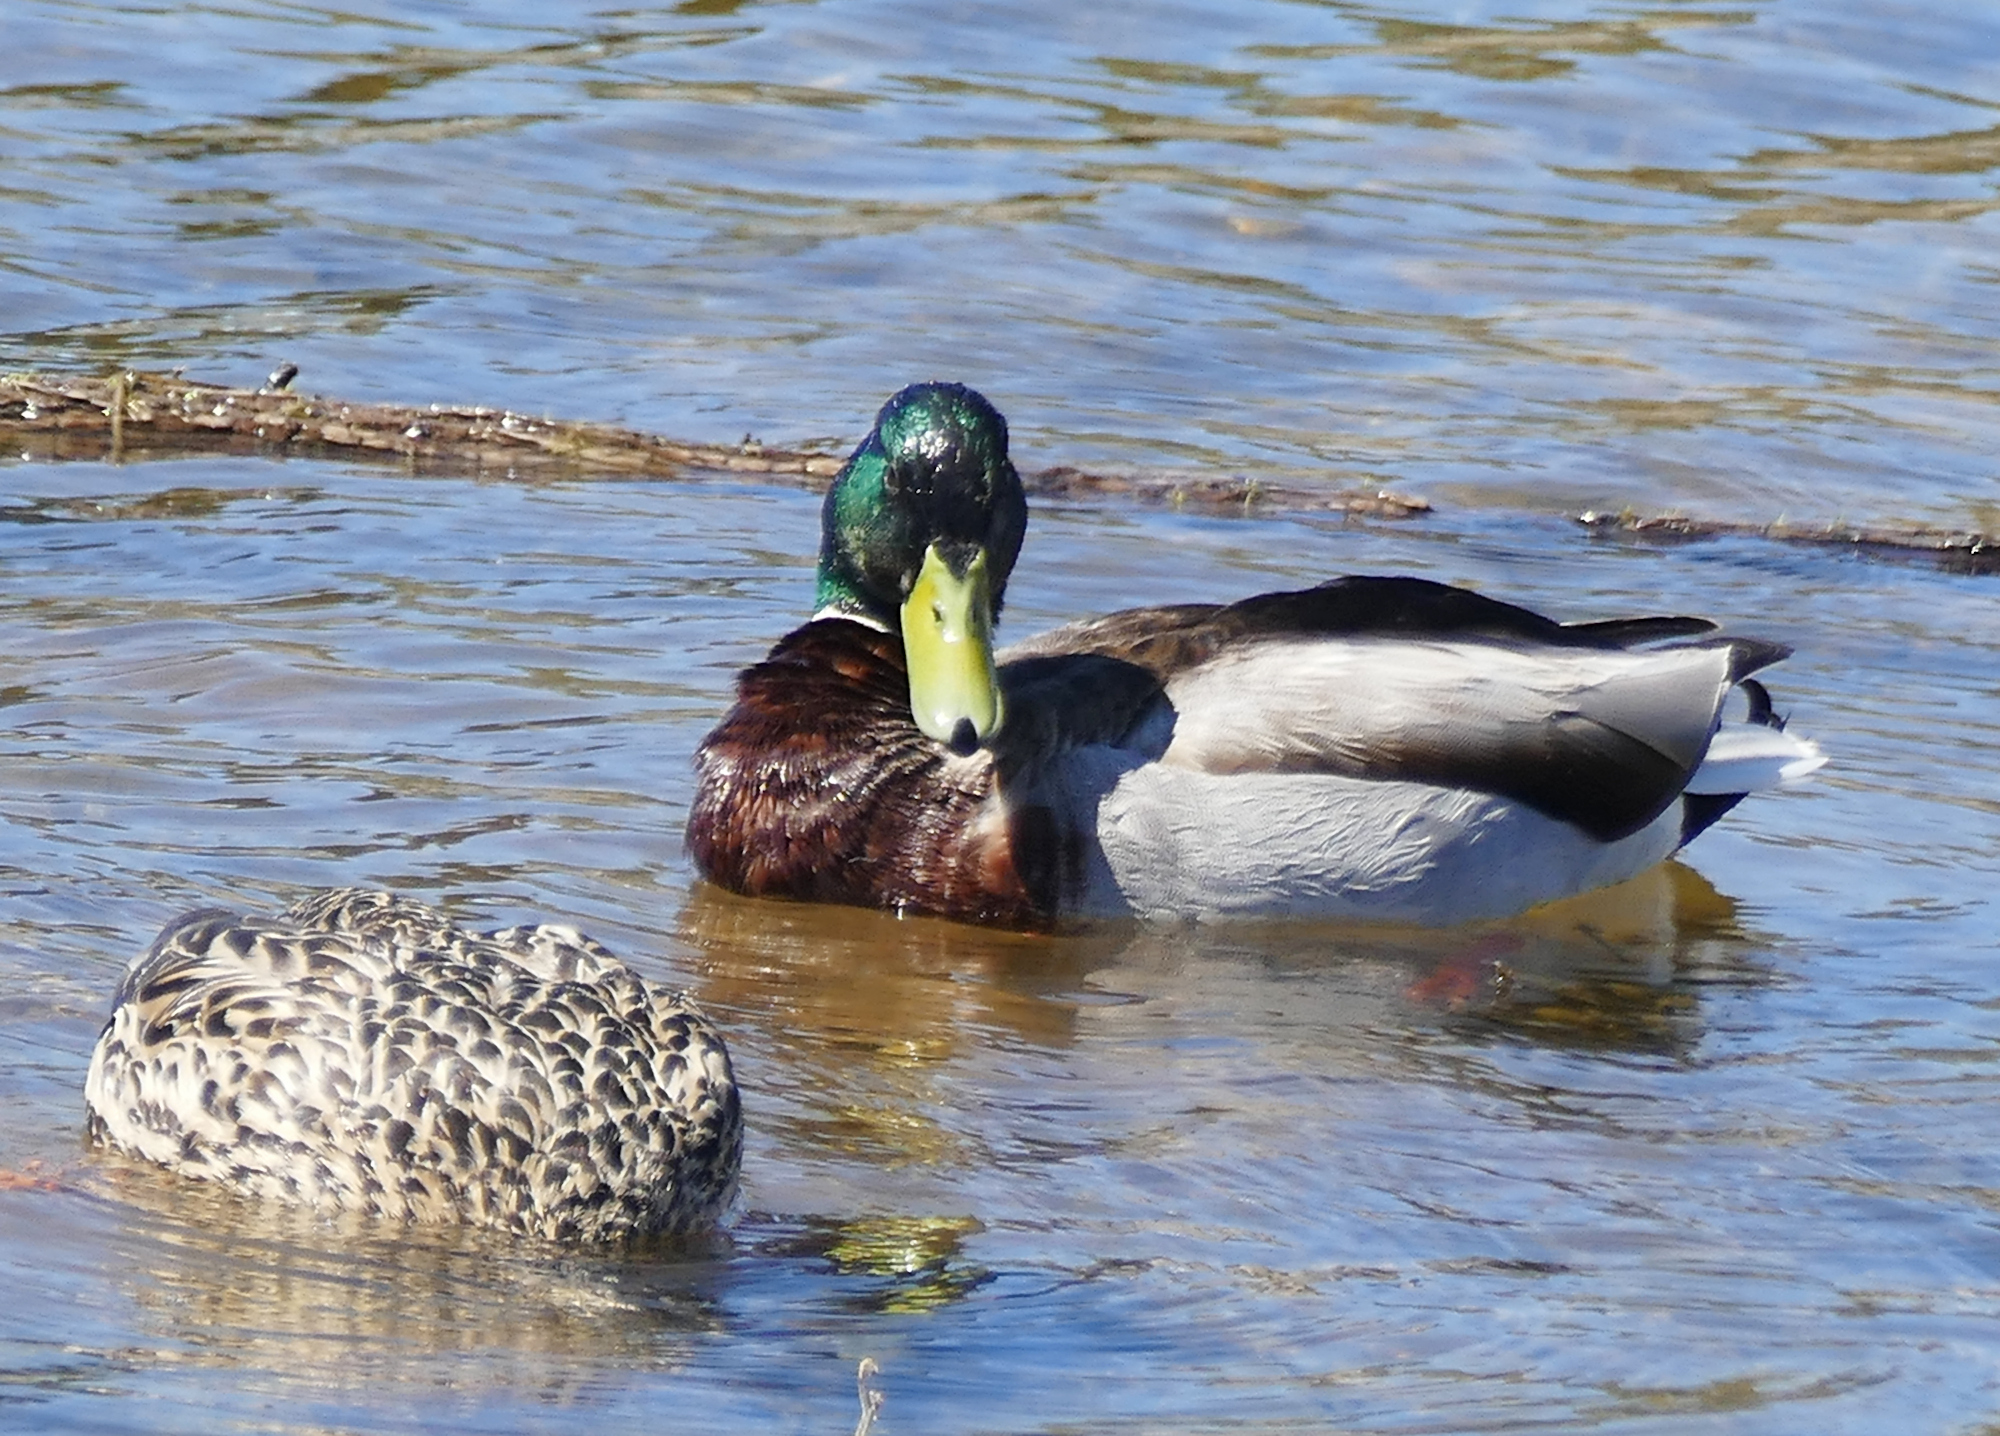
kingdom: Animalia
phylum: Chordata
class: Aves
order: Anseriformes
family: Anatidae
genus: Anas
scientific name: Anas platyrhynchos
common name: Mallard
